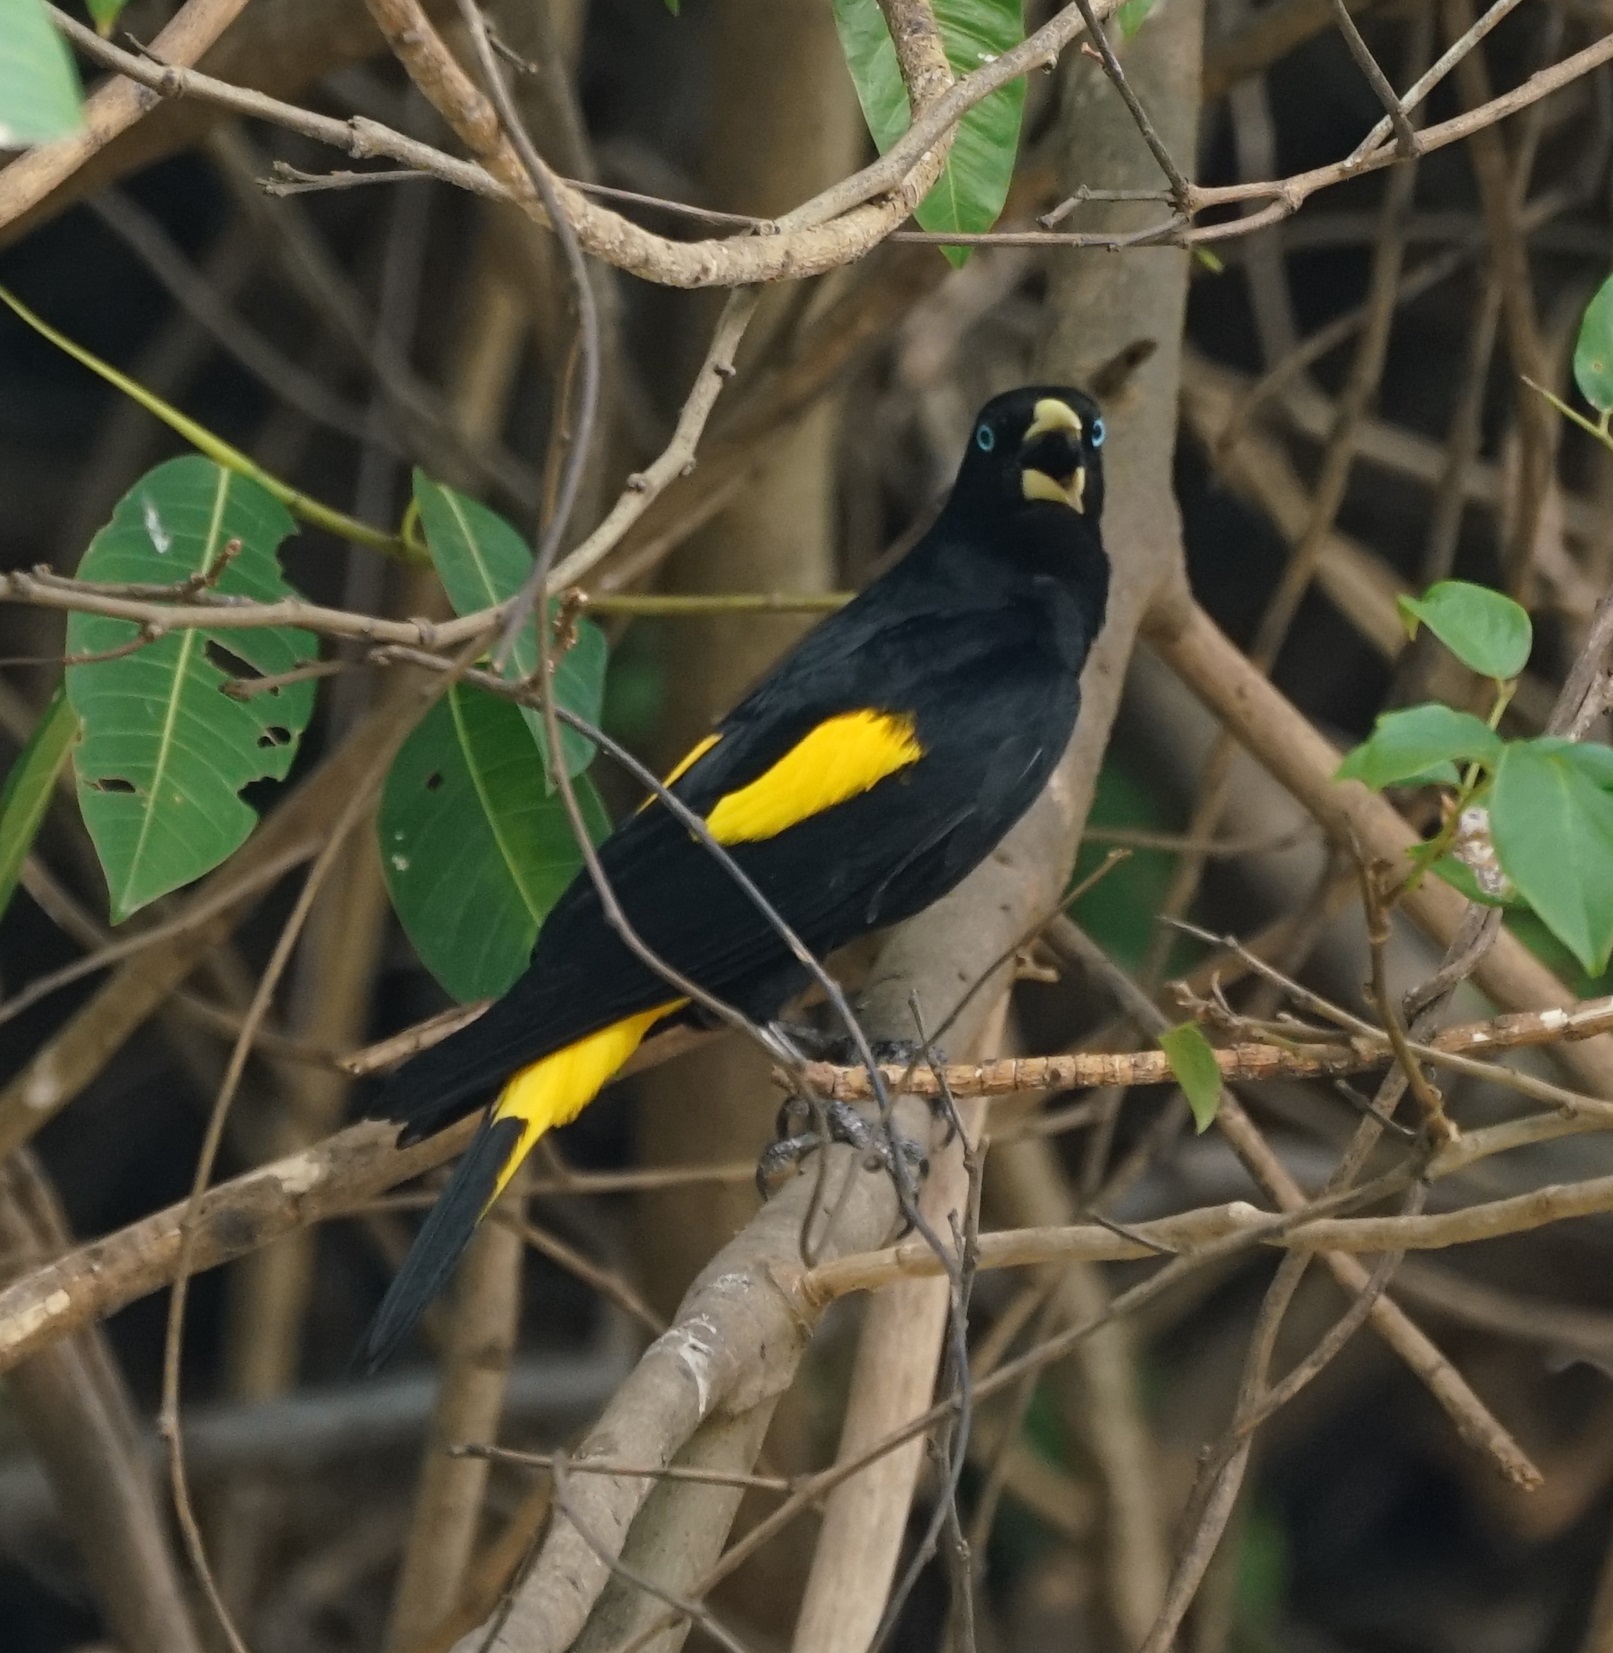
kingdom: Animalia
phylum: Chordata
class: Aves
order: Passeriformes
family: Icteridae
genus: Cacicus
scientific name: Cacicus cela
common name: Yellow-rumped cacique
